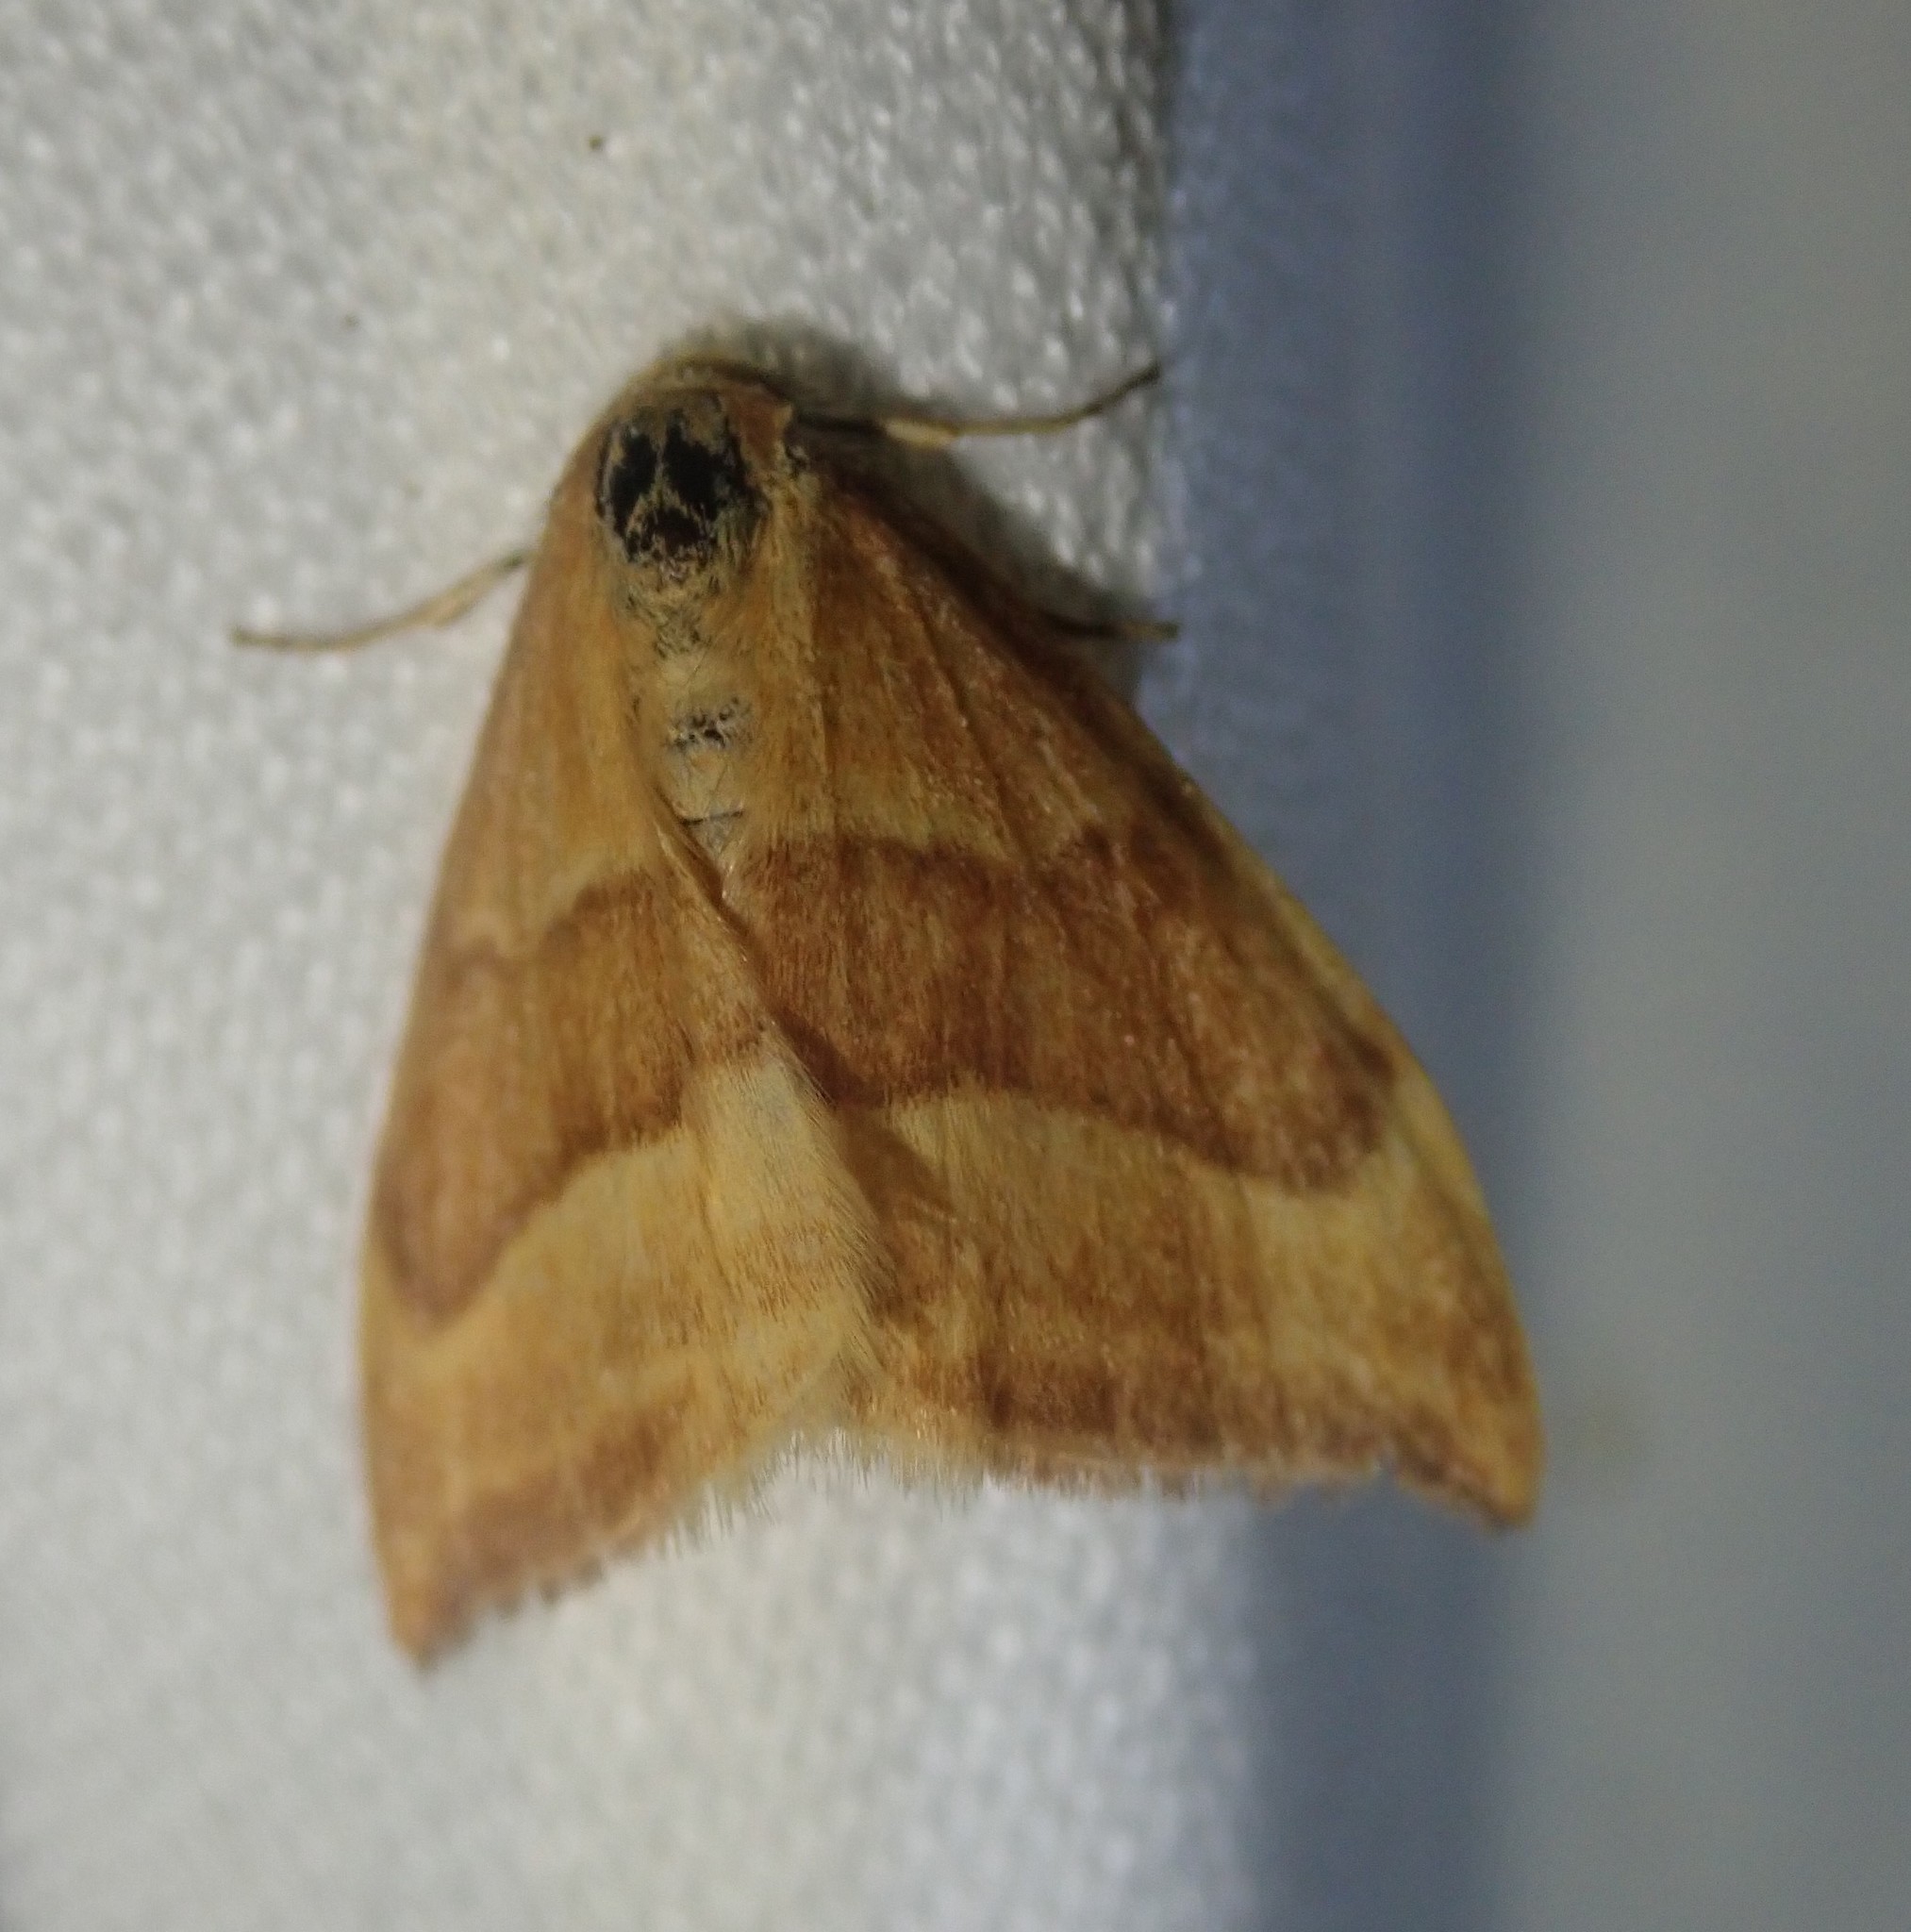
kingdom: Animalia
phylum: Arthropoda
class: Insecta
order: Lepidoptera
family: Drepanidae
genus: Watsonalla
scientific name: Watsonalla cultraria
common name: Barred hook-tip
